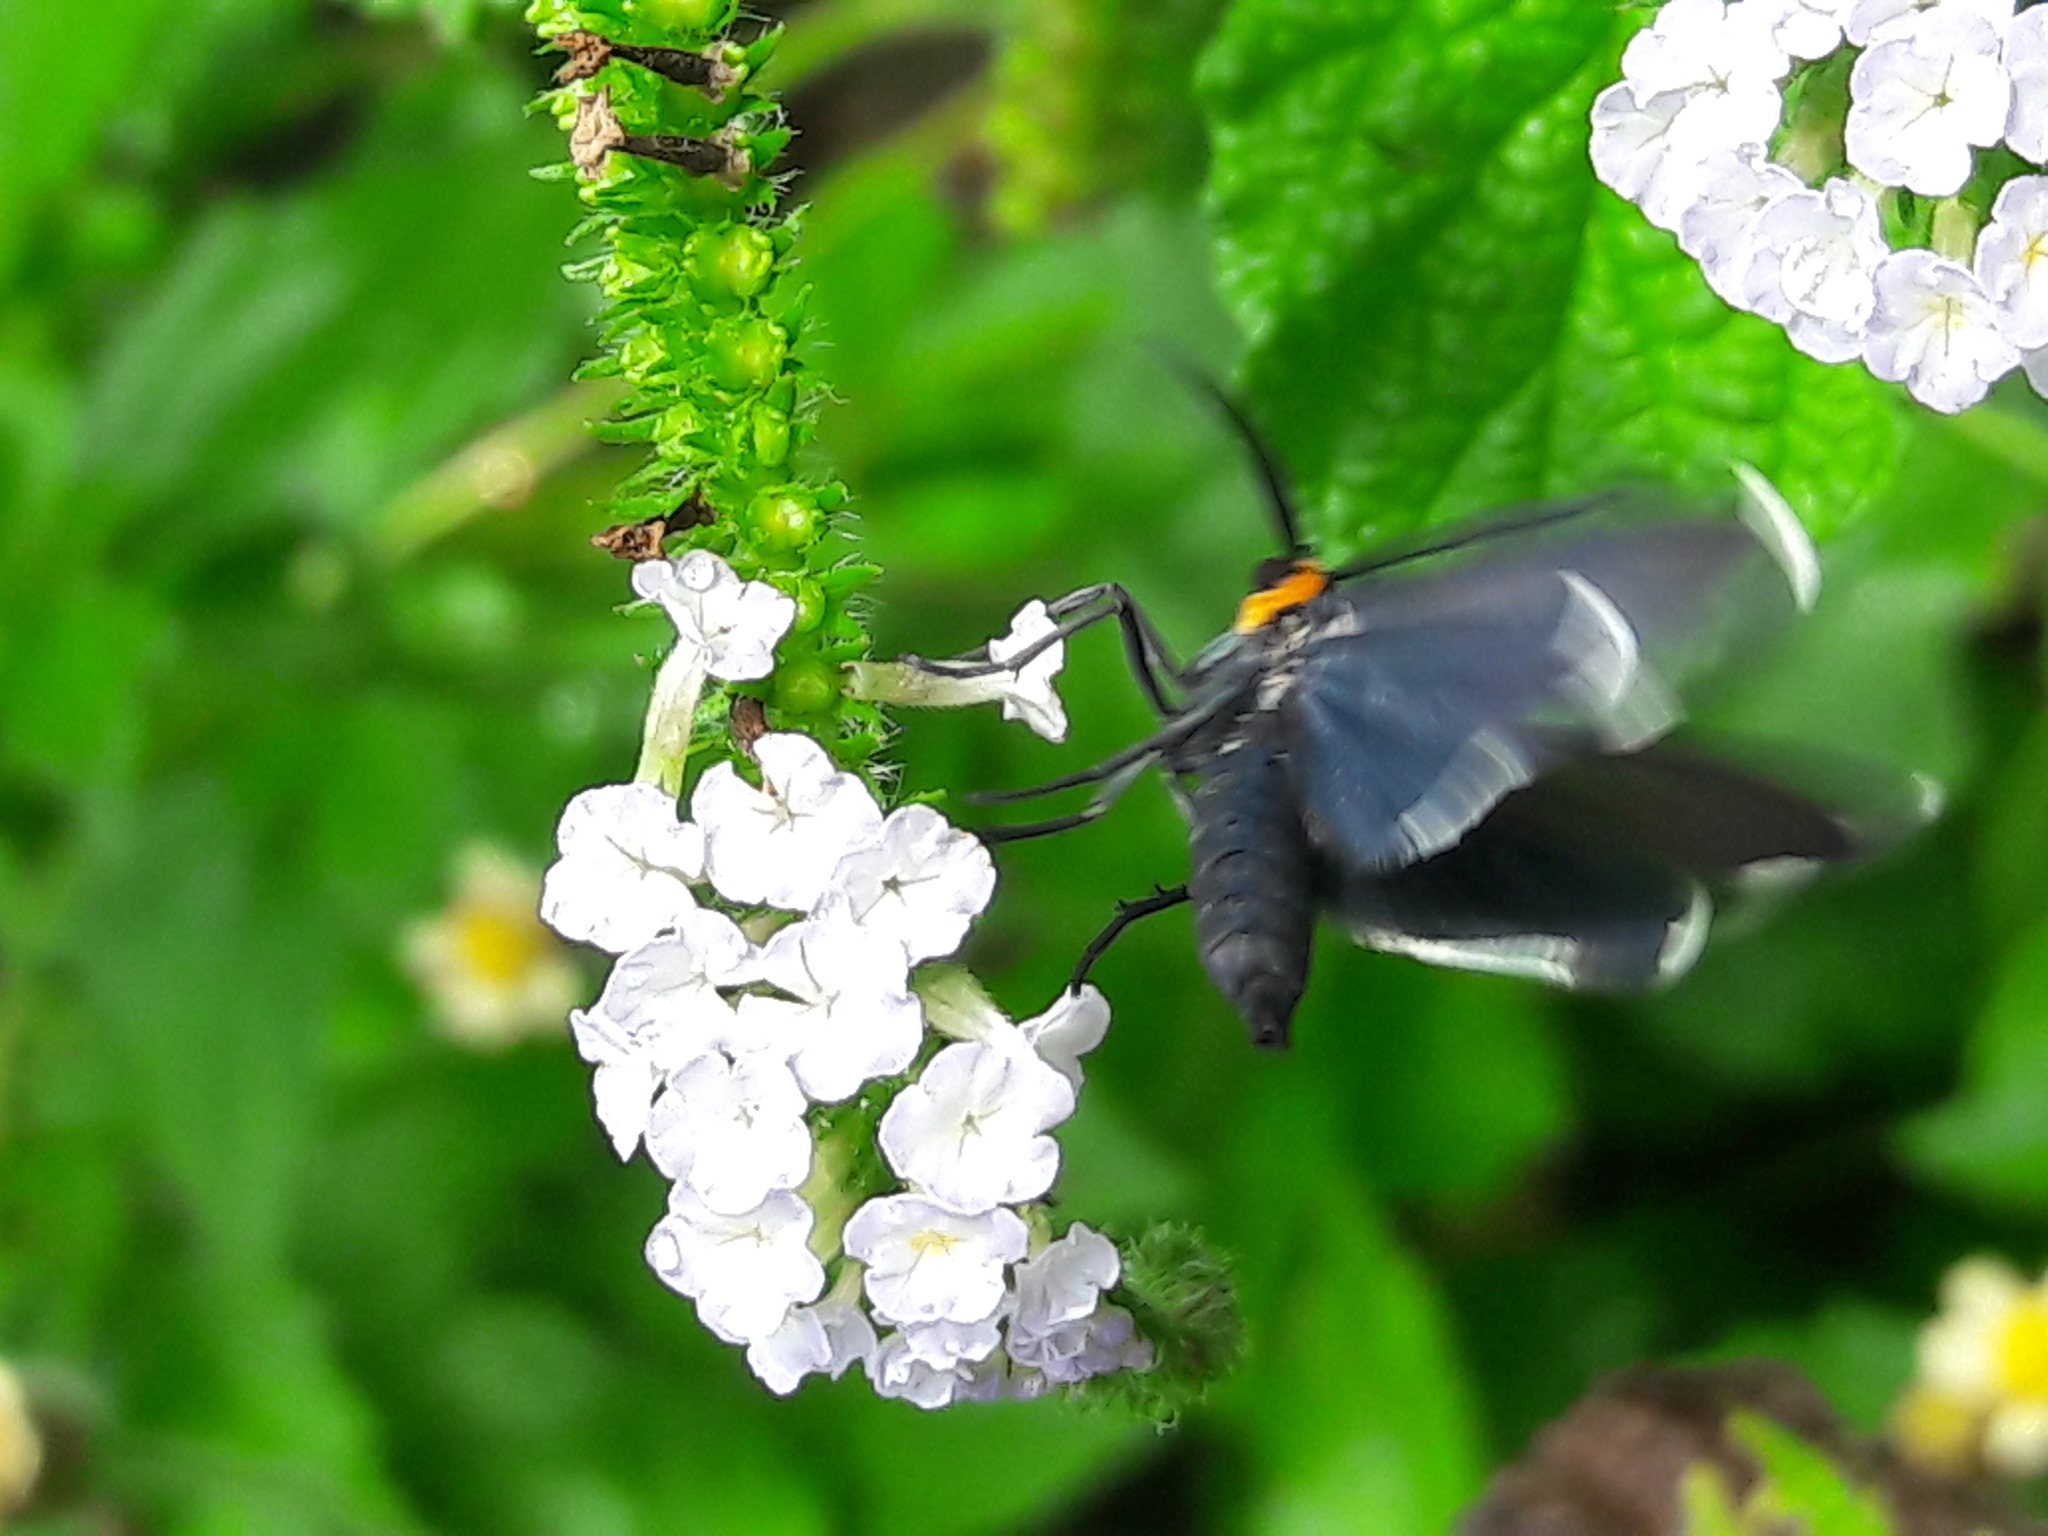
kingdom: Animalia
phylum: Arthropoda
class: Insecta
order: Lepidoptera
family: Erebidae
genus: Ctenucha
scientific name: Ctenucha rubriceps
